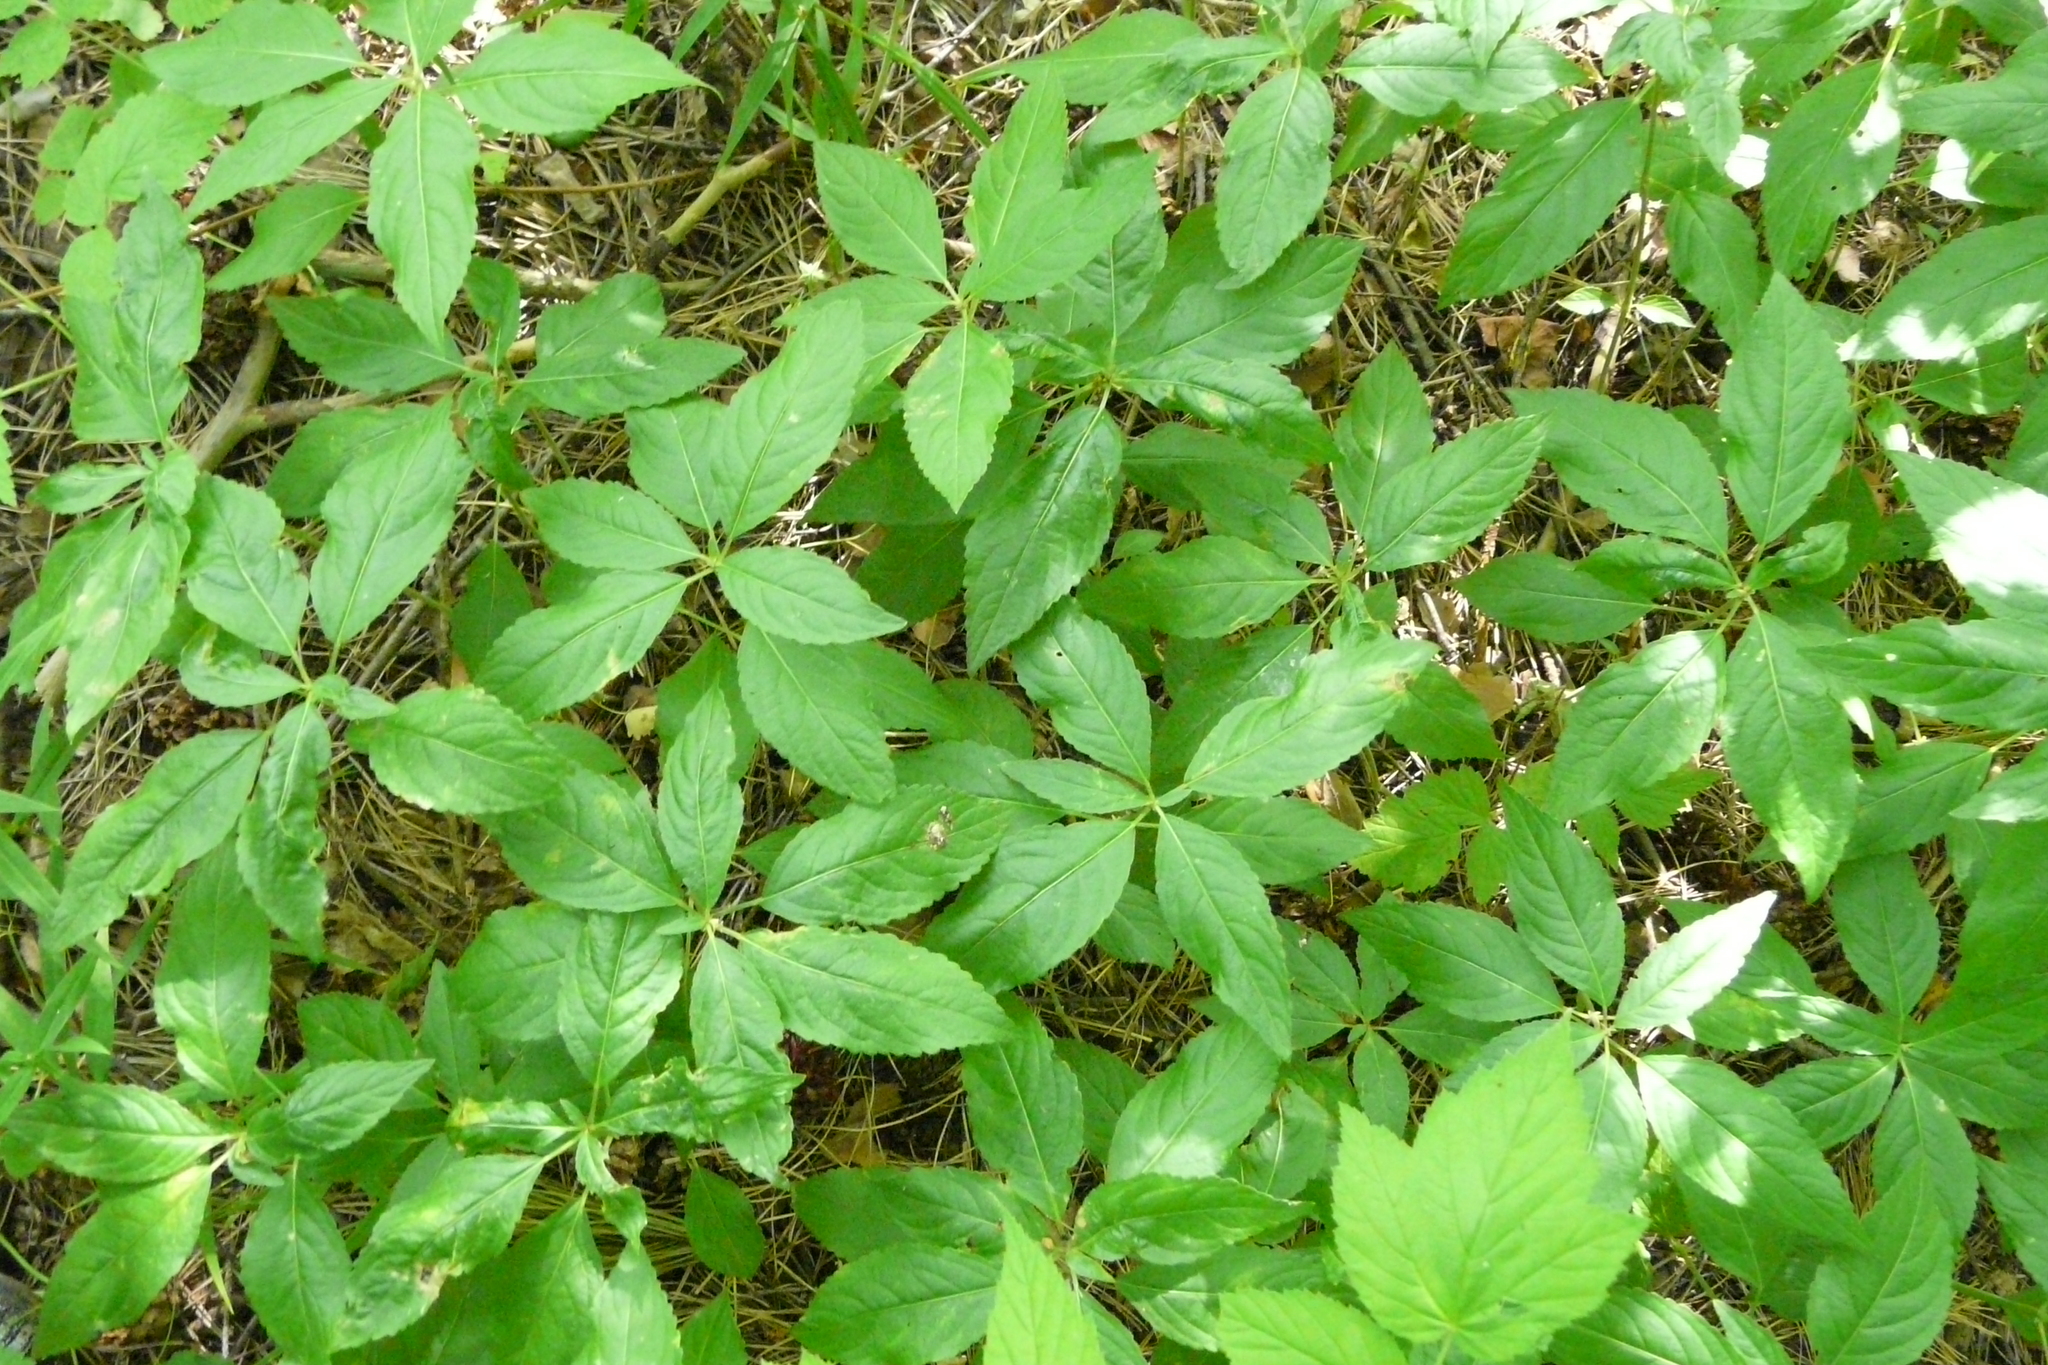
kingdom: Plantae
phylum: Tracheophyta
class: Magnoliopsida
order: Malpighiales
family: Euphorbiaceae
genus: Mercurialis
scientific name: Mercurialis perennis
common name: Dog mercury
